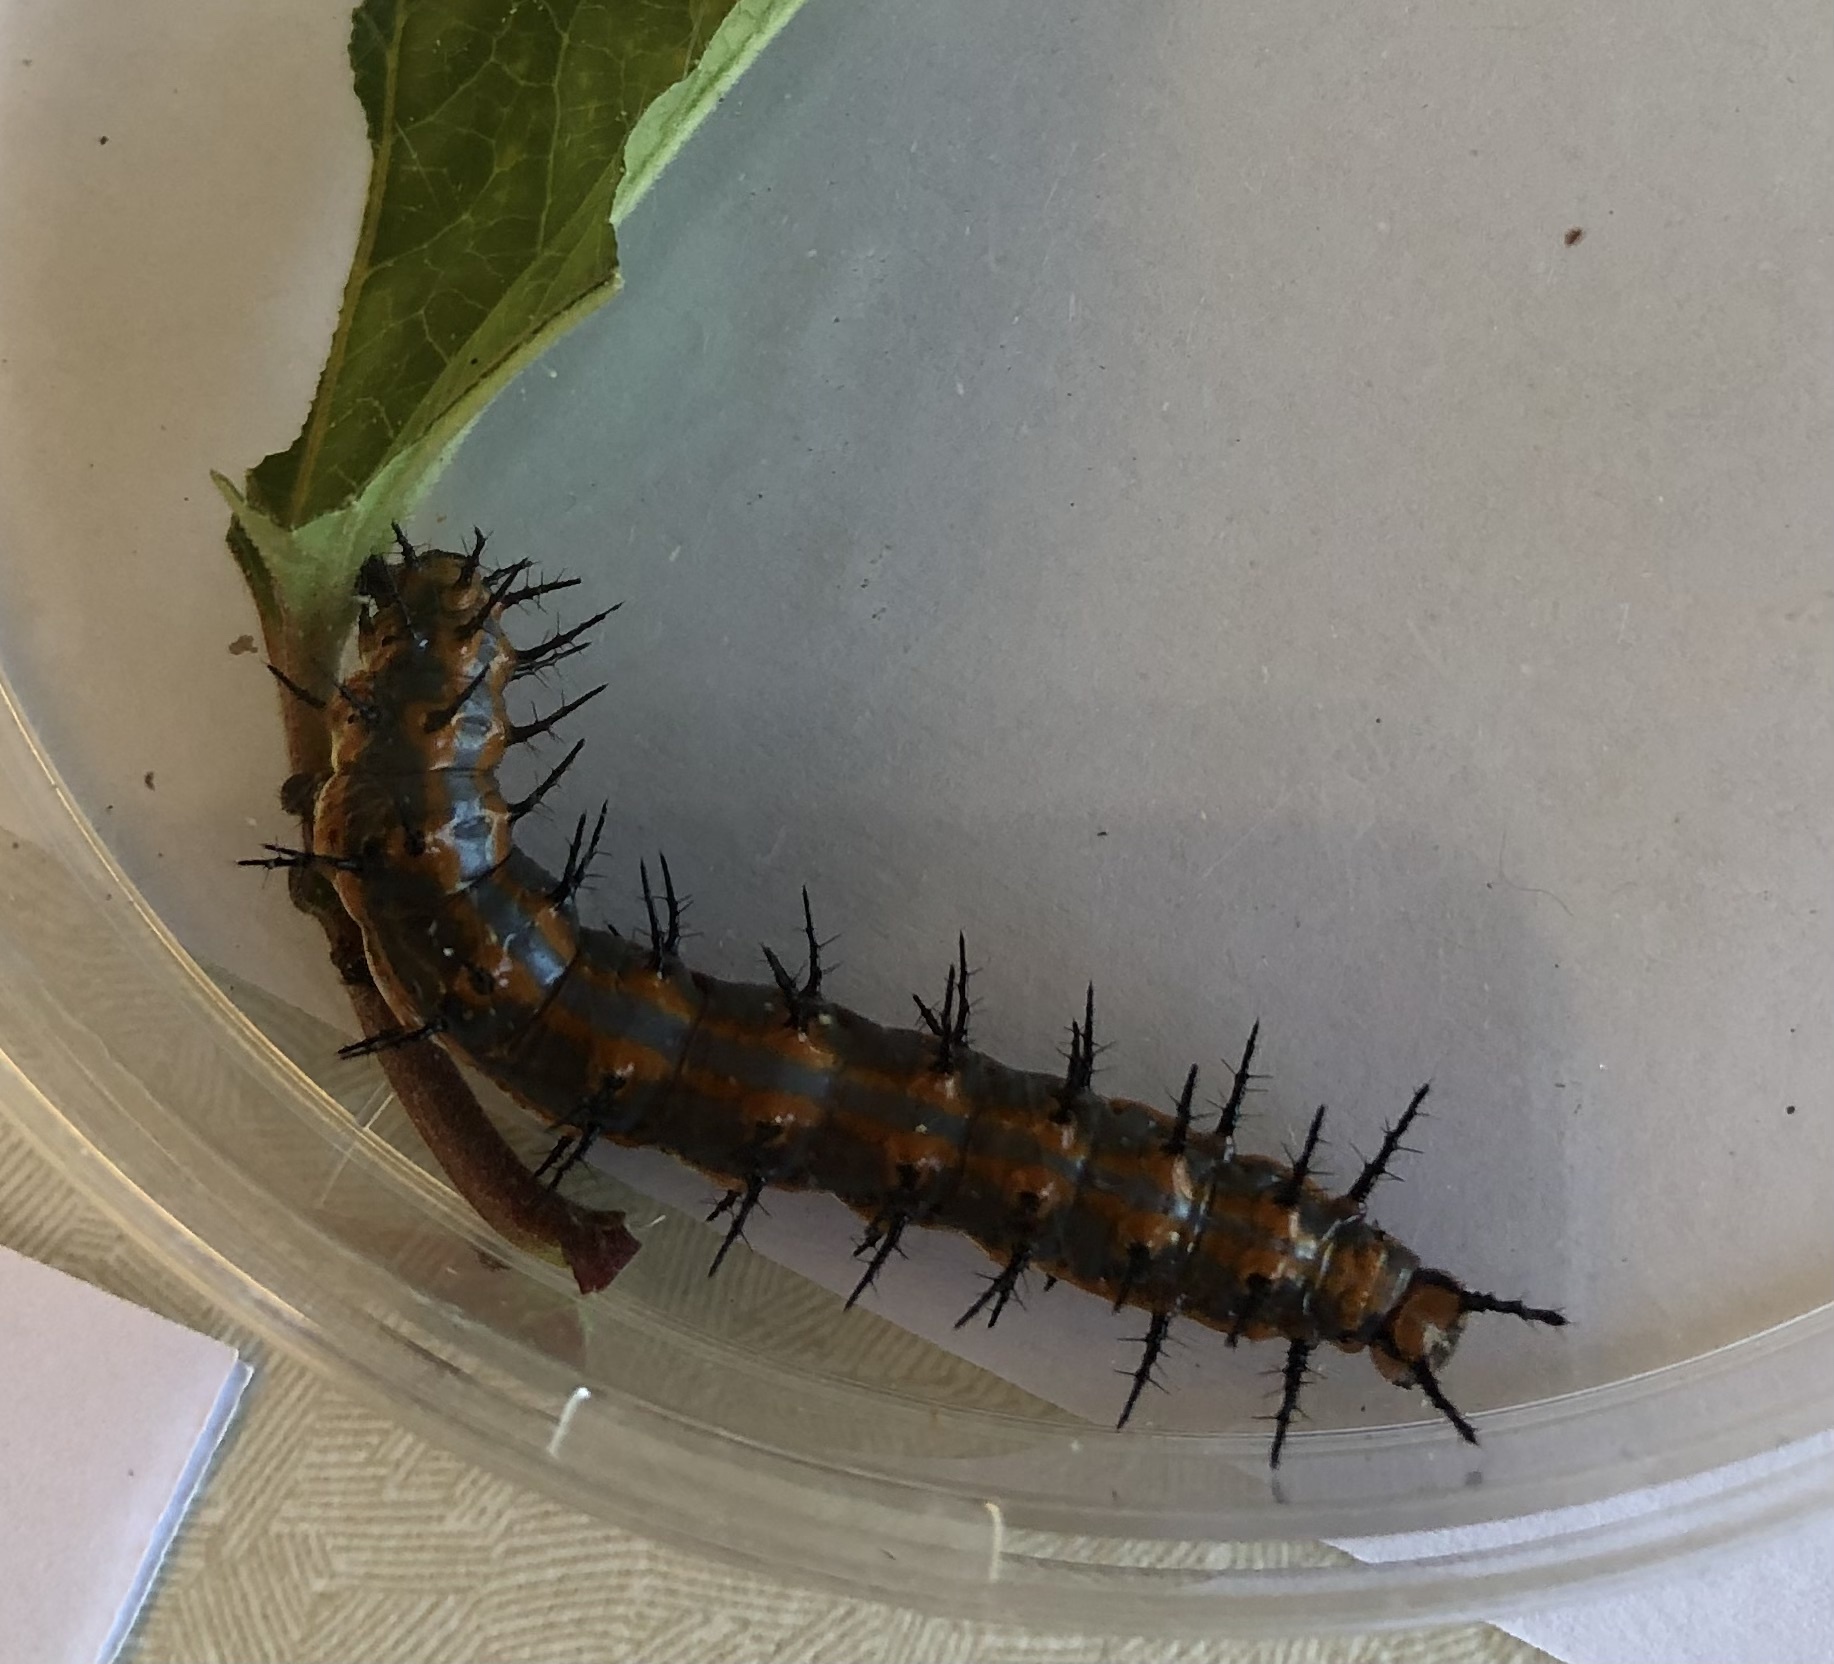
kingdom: Animalia
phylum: Arthropoda
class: Insecta
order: Lepidoptera
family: Nymphalidae
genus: Dione
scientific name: Dione vanillae
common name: Gulf fritillary
